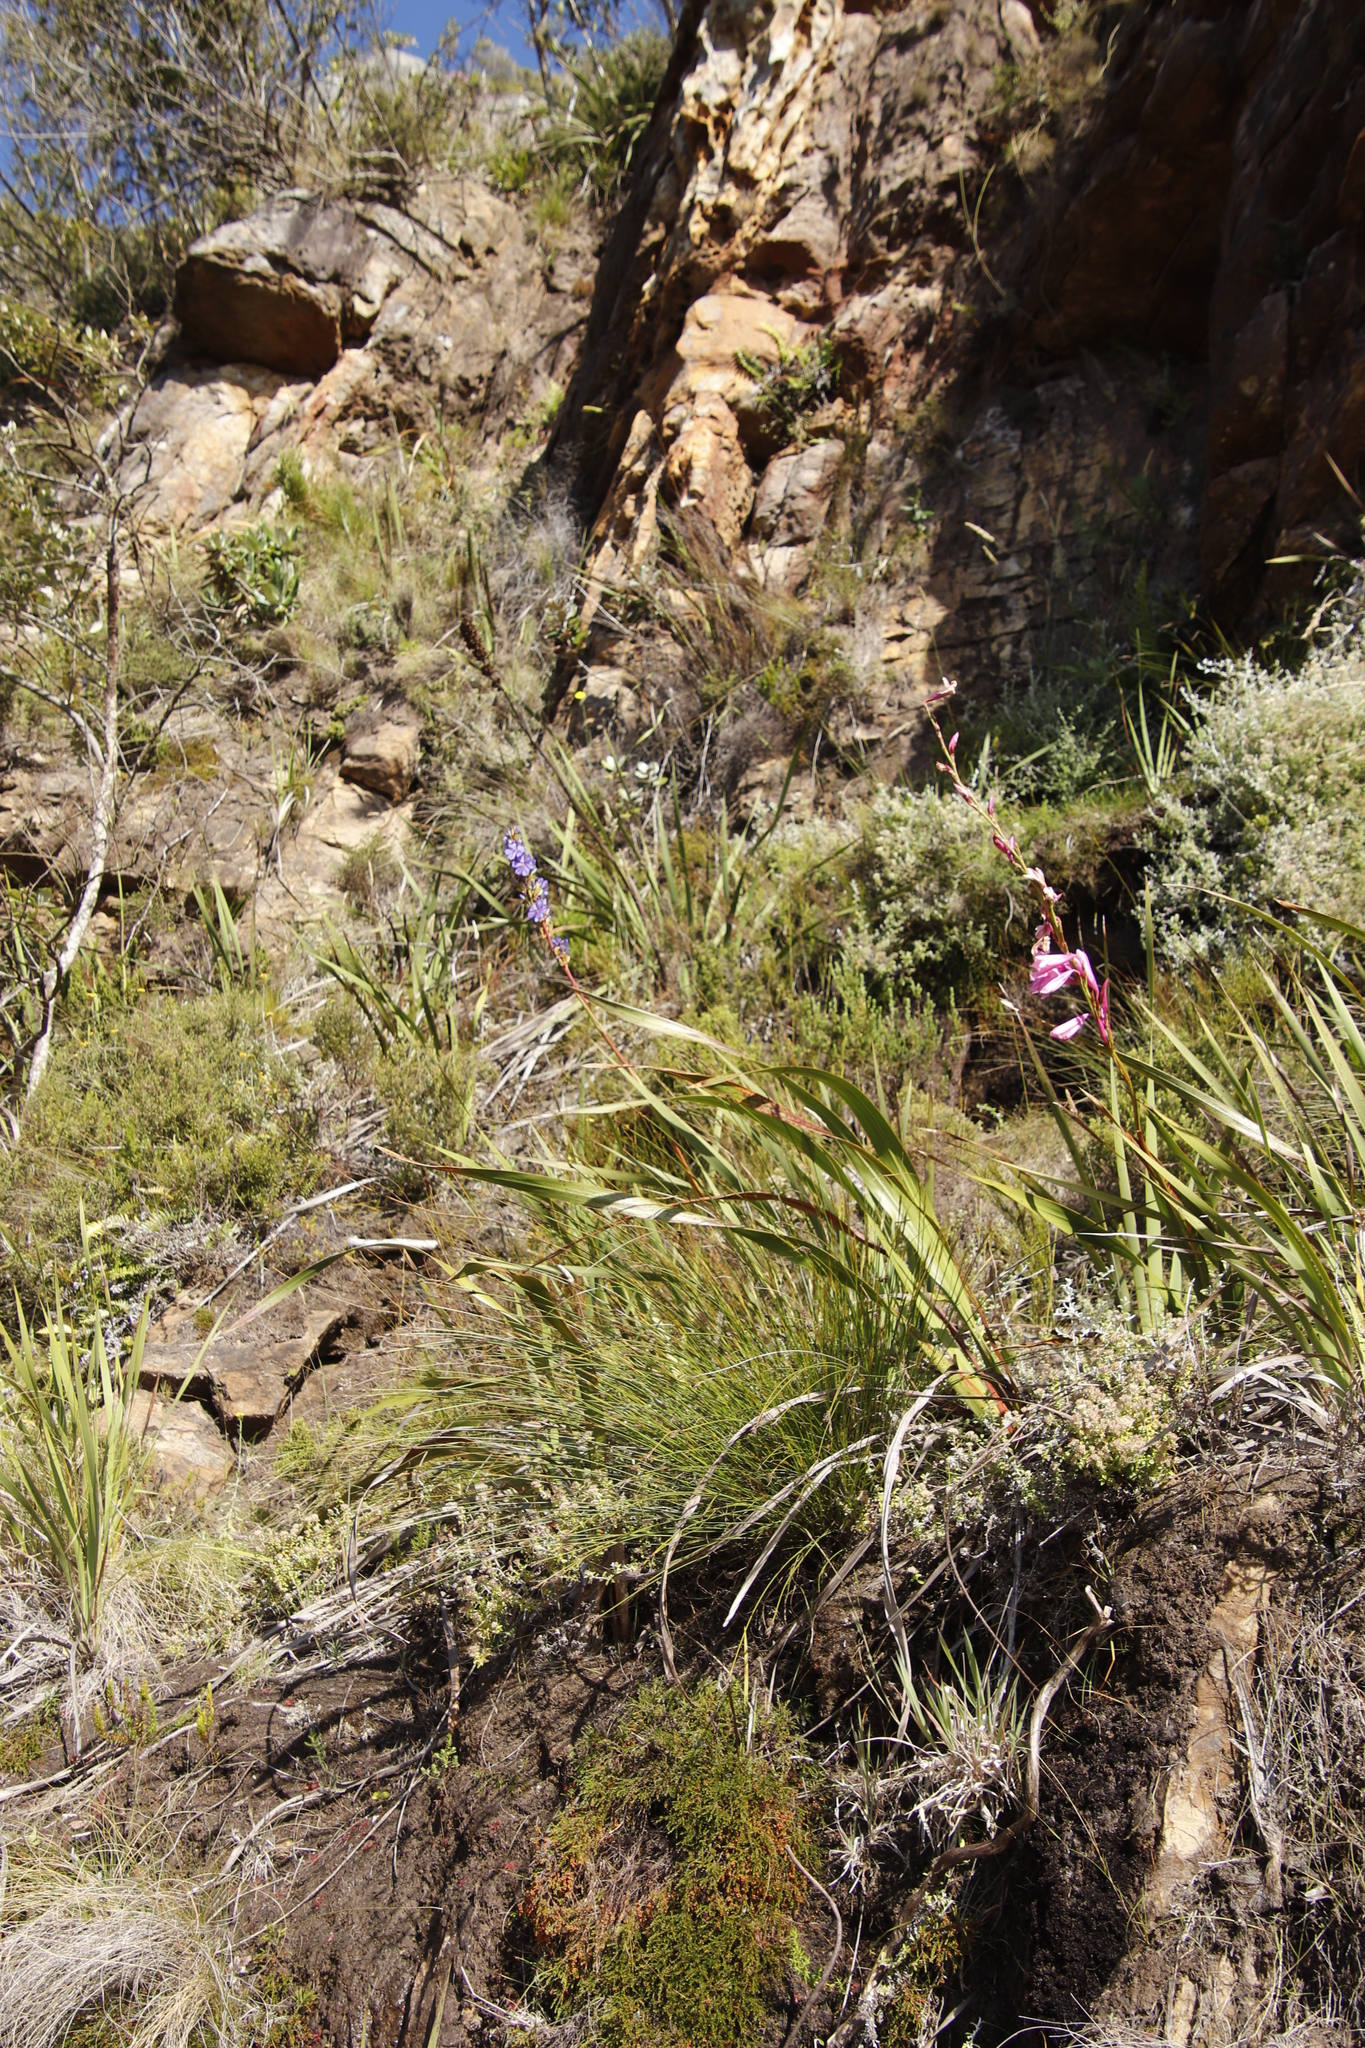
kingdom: Plantae
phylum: Tracheophyta
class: Liliopsida
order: Asparagales
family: Iridaceae
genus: Aristea
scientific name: Aristea capitata
